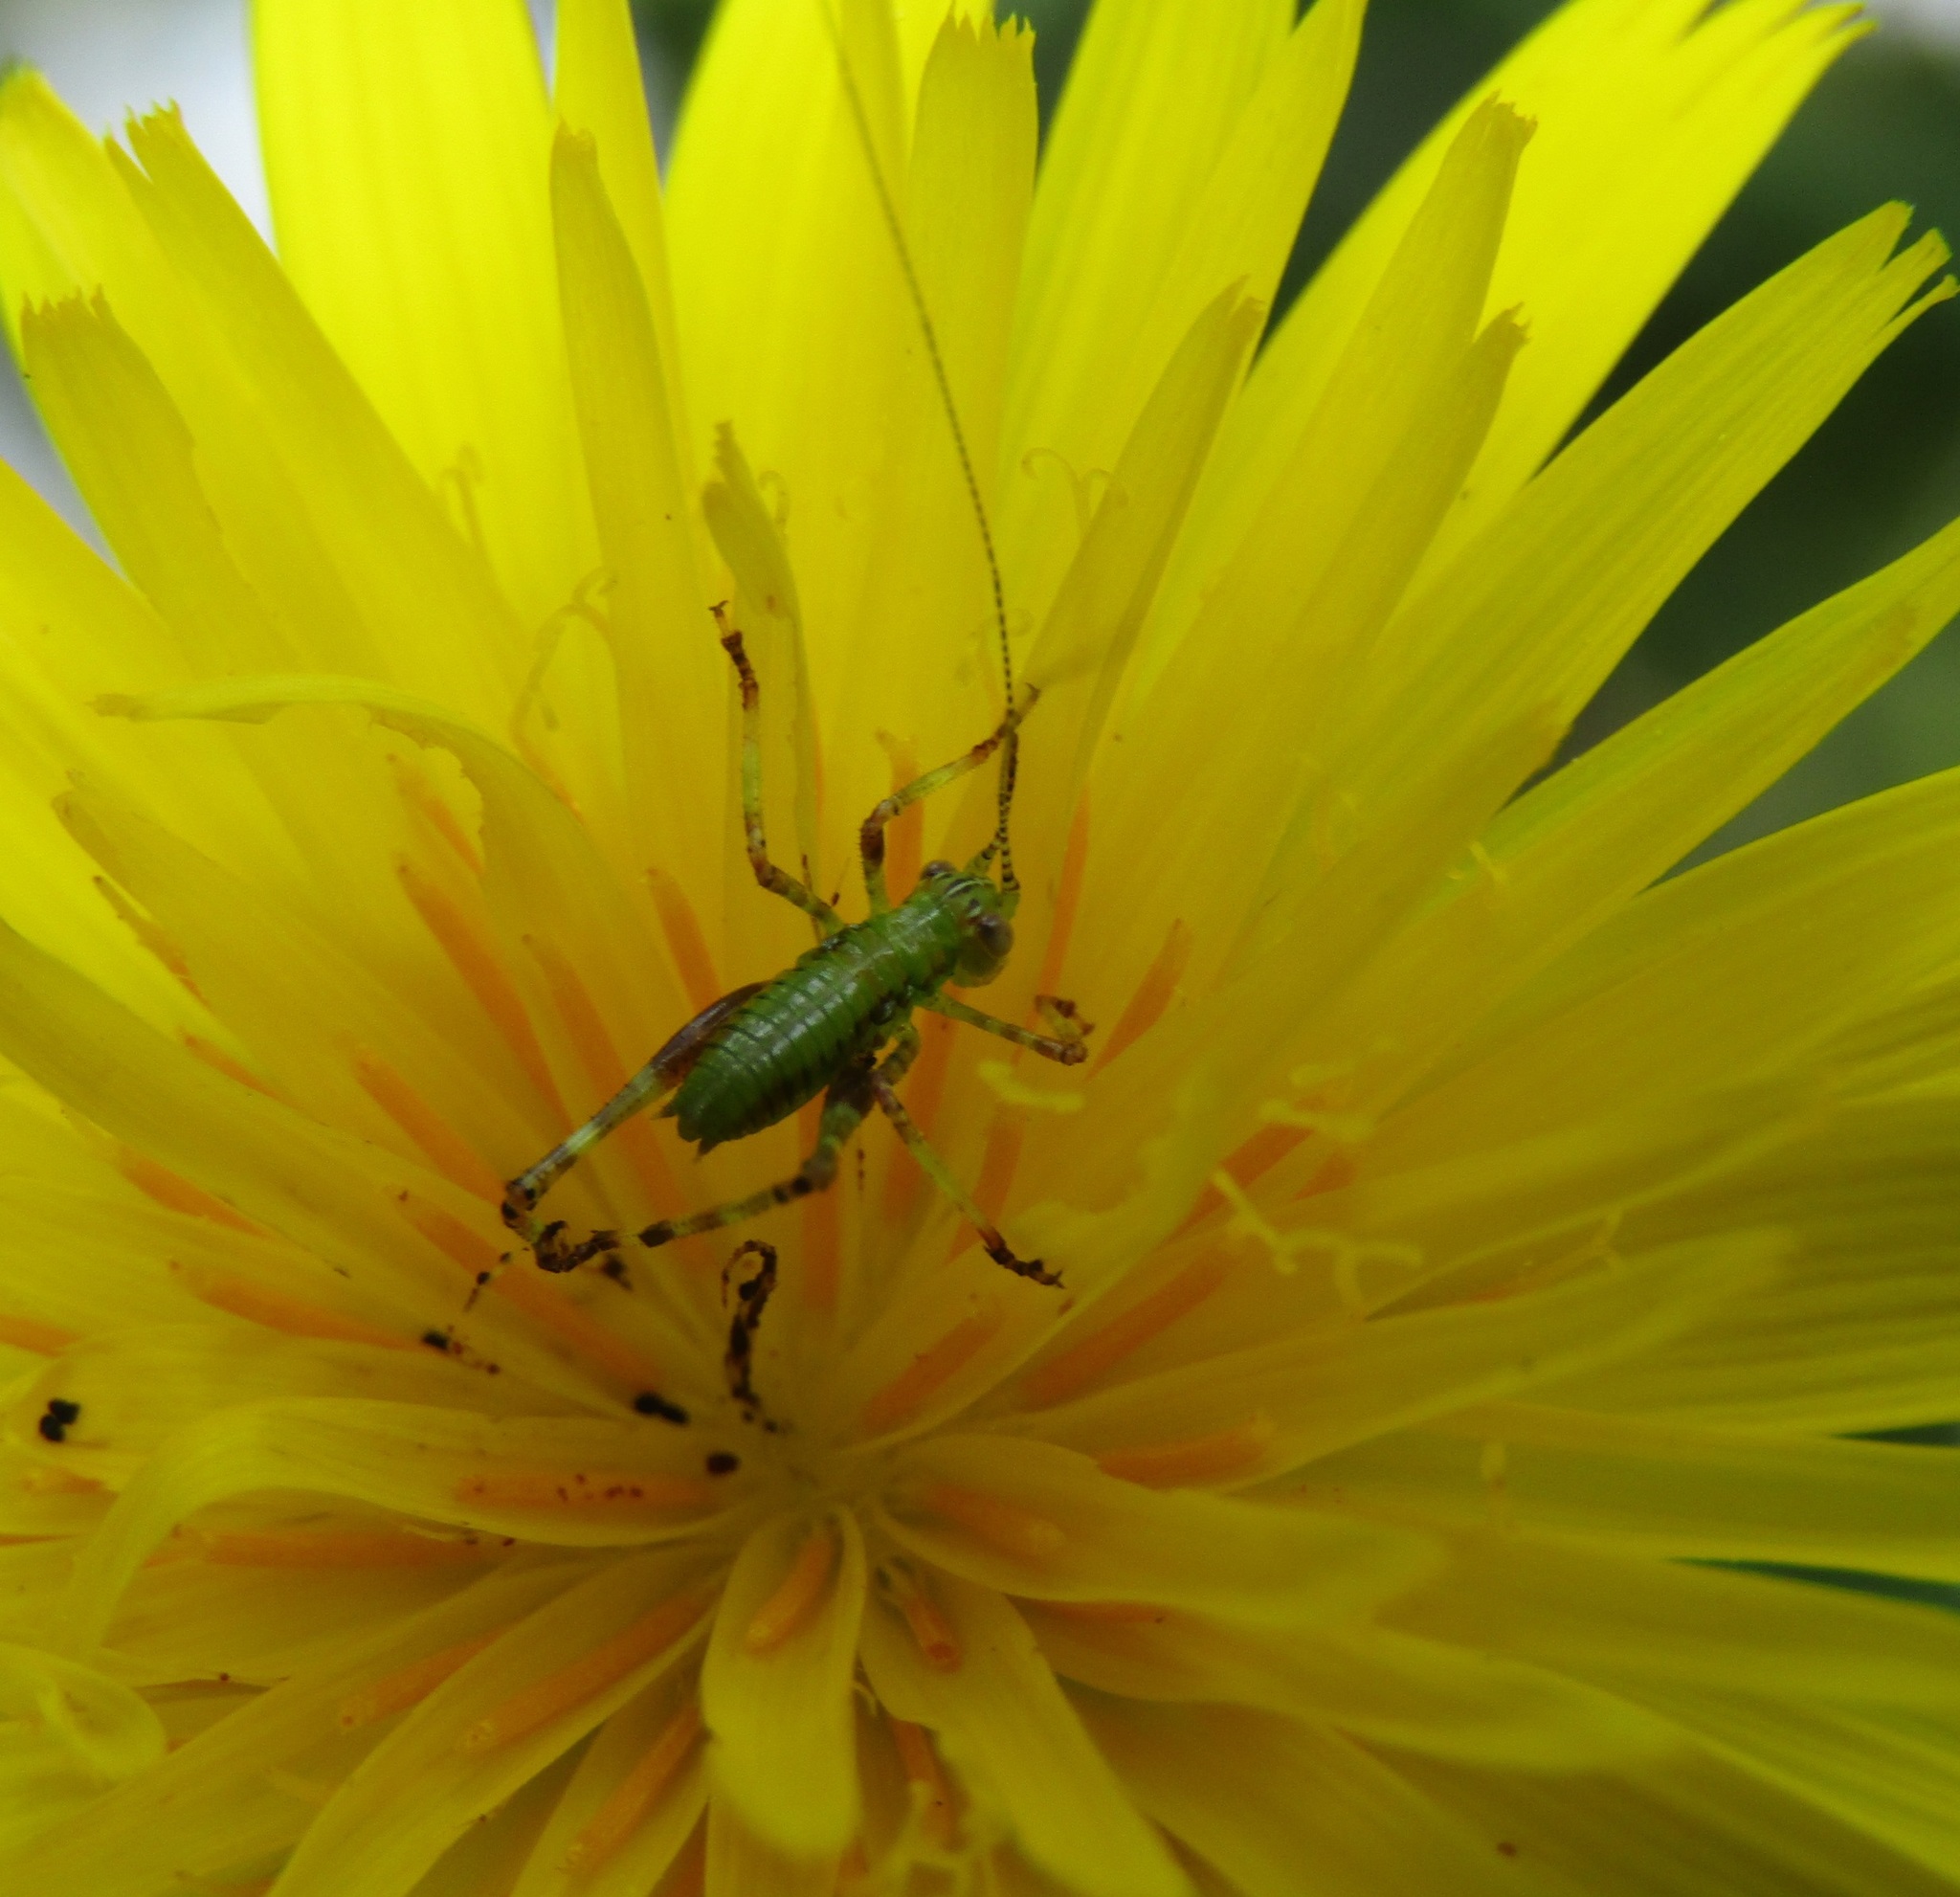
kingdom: Animalia
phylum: Arthropoda
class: Insecta
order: Orthoptera
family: Tettigoniidae
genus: Caedicia
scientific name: Caedicia simplex
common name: Common garden katydid
